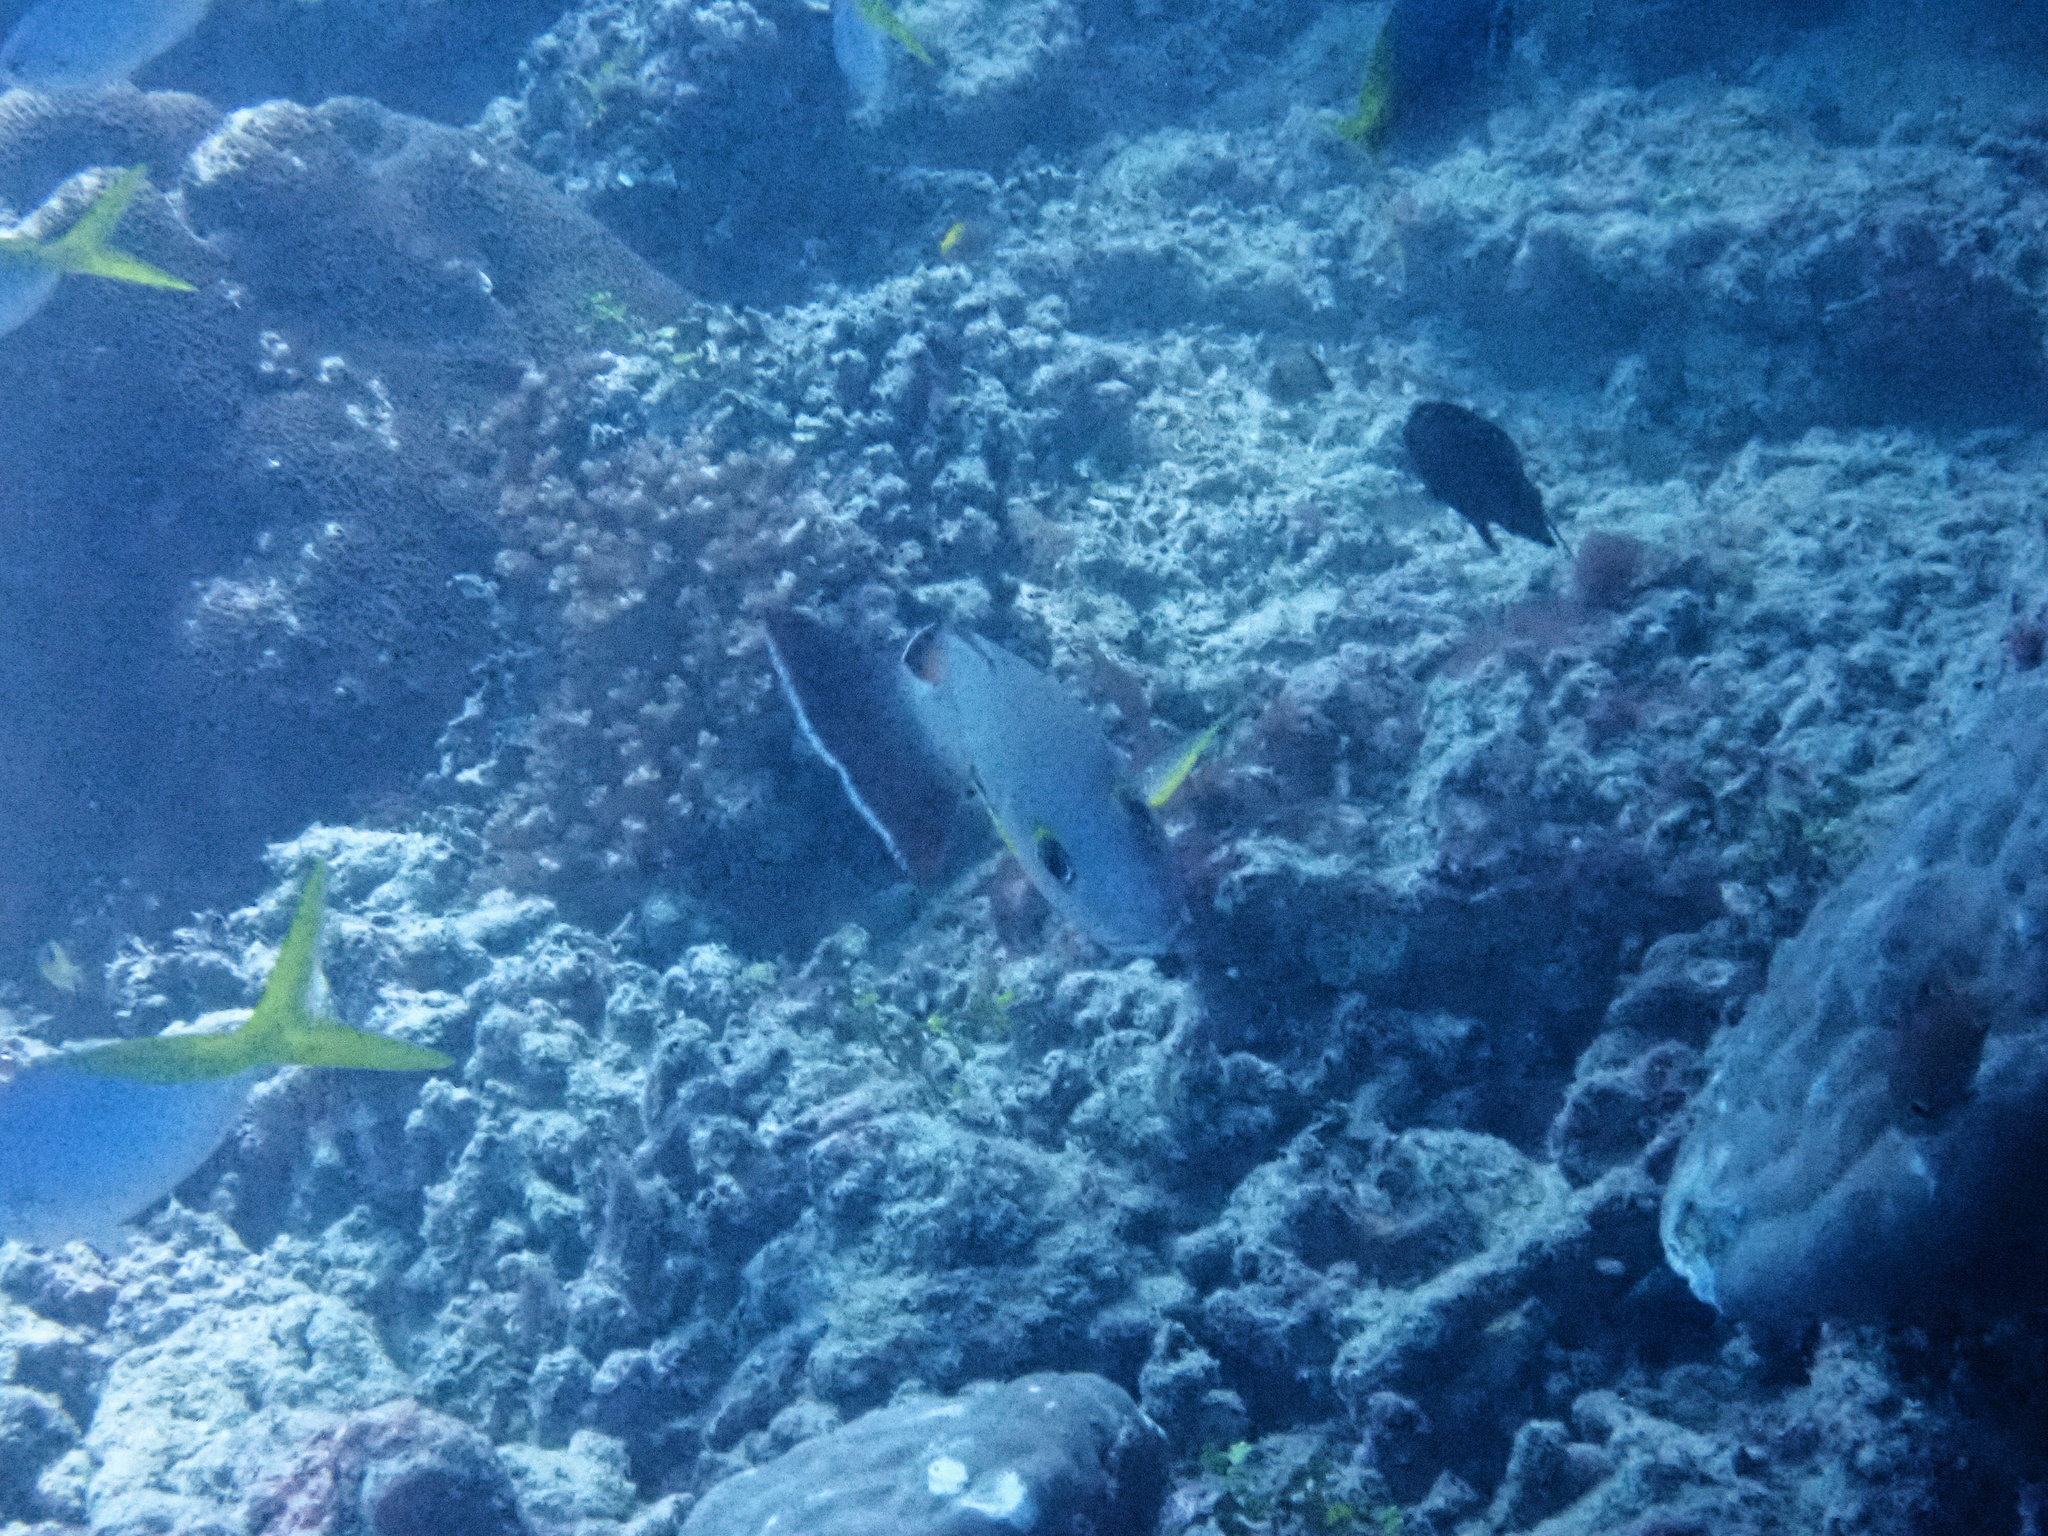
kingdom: Animalia
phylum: Chordata
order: Perciformes
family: Lutjanidae
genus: Lutjanus
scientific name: Lutjanus fulvus
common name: Blacktail snapper
